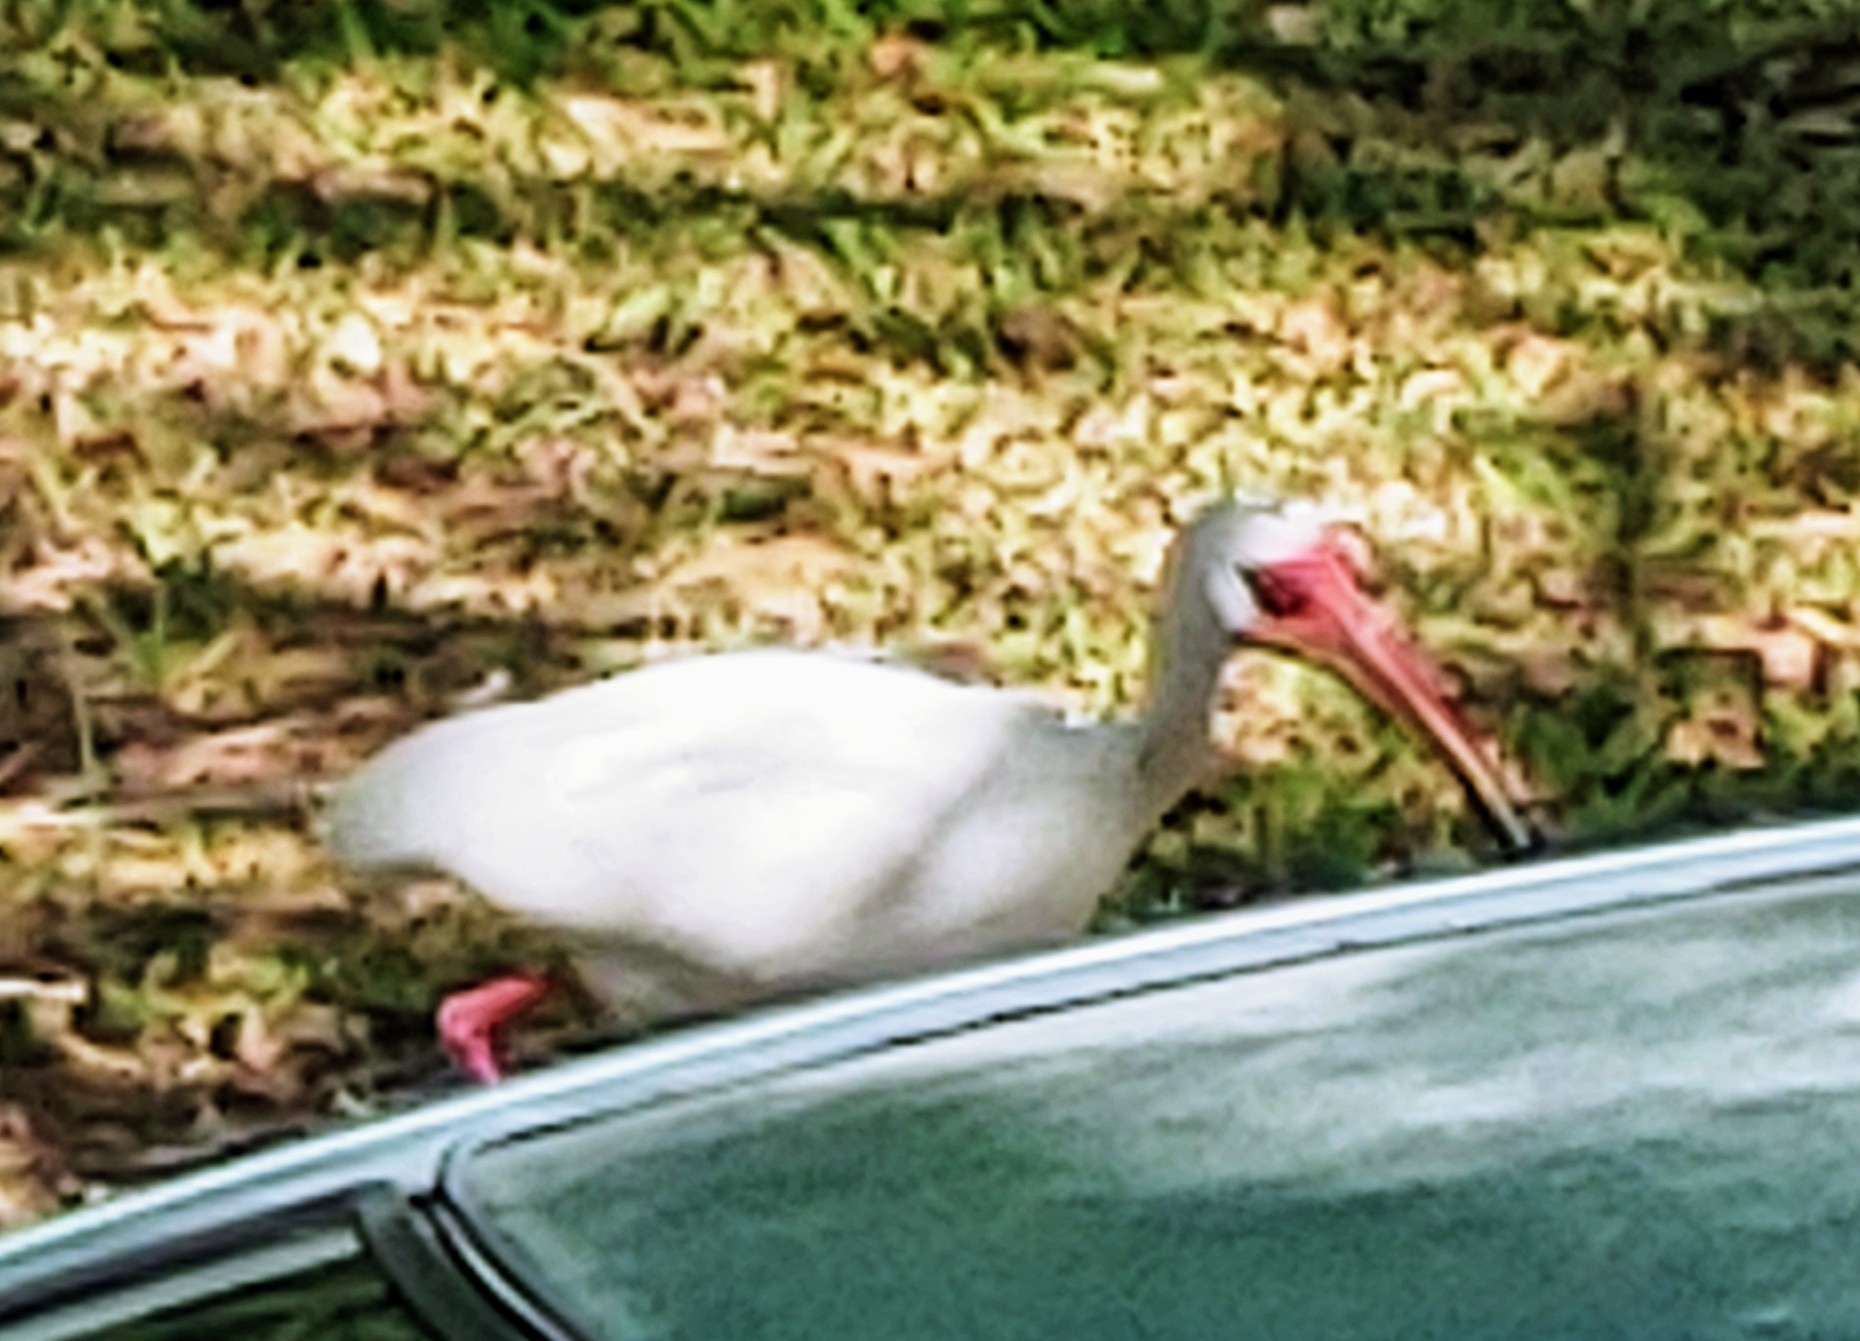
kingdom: Animalia
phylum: Chordata
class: Aves
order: Pelecaniformes
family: Threskiornithidae
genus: Eudocimus
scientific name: Eudocimus albus
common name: White ibis
